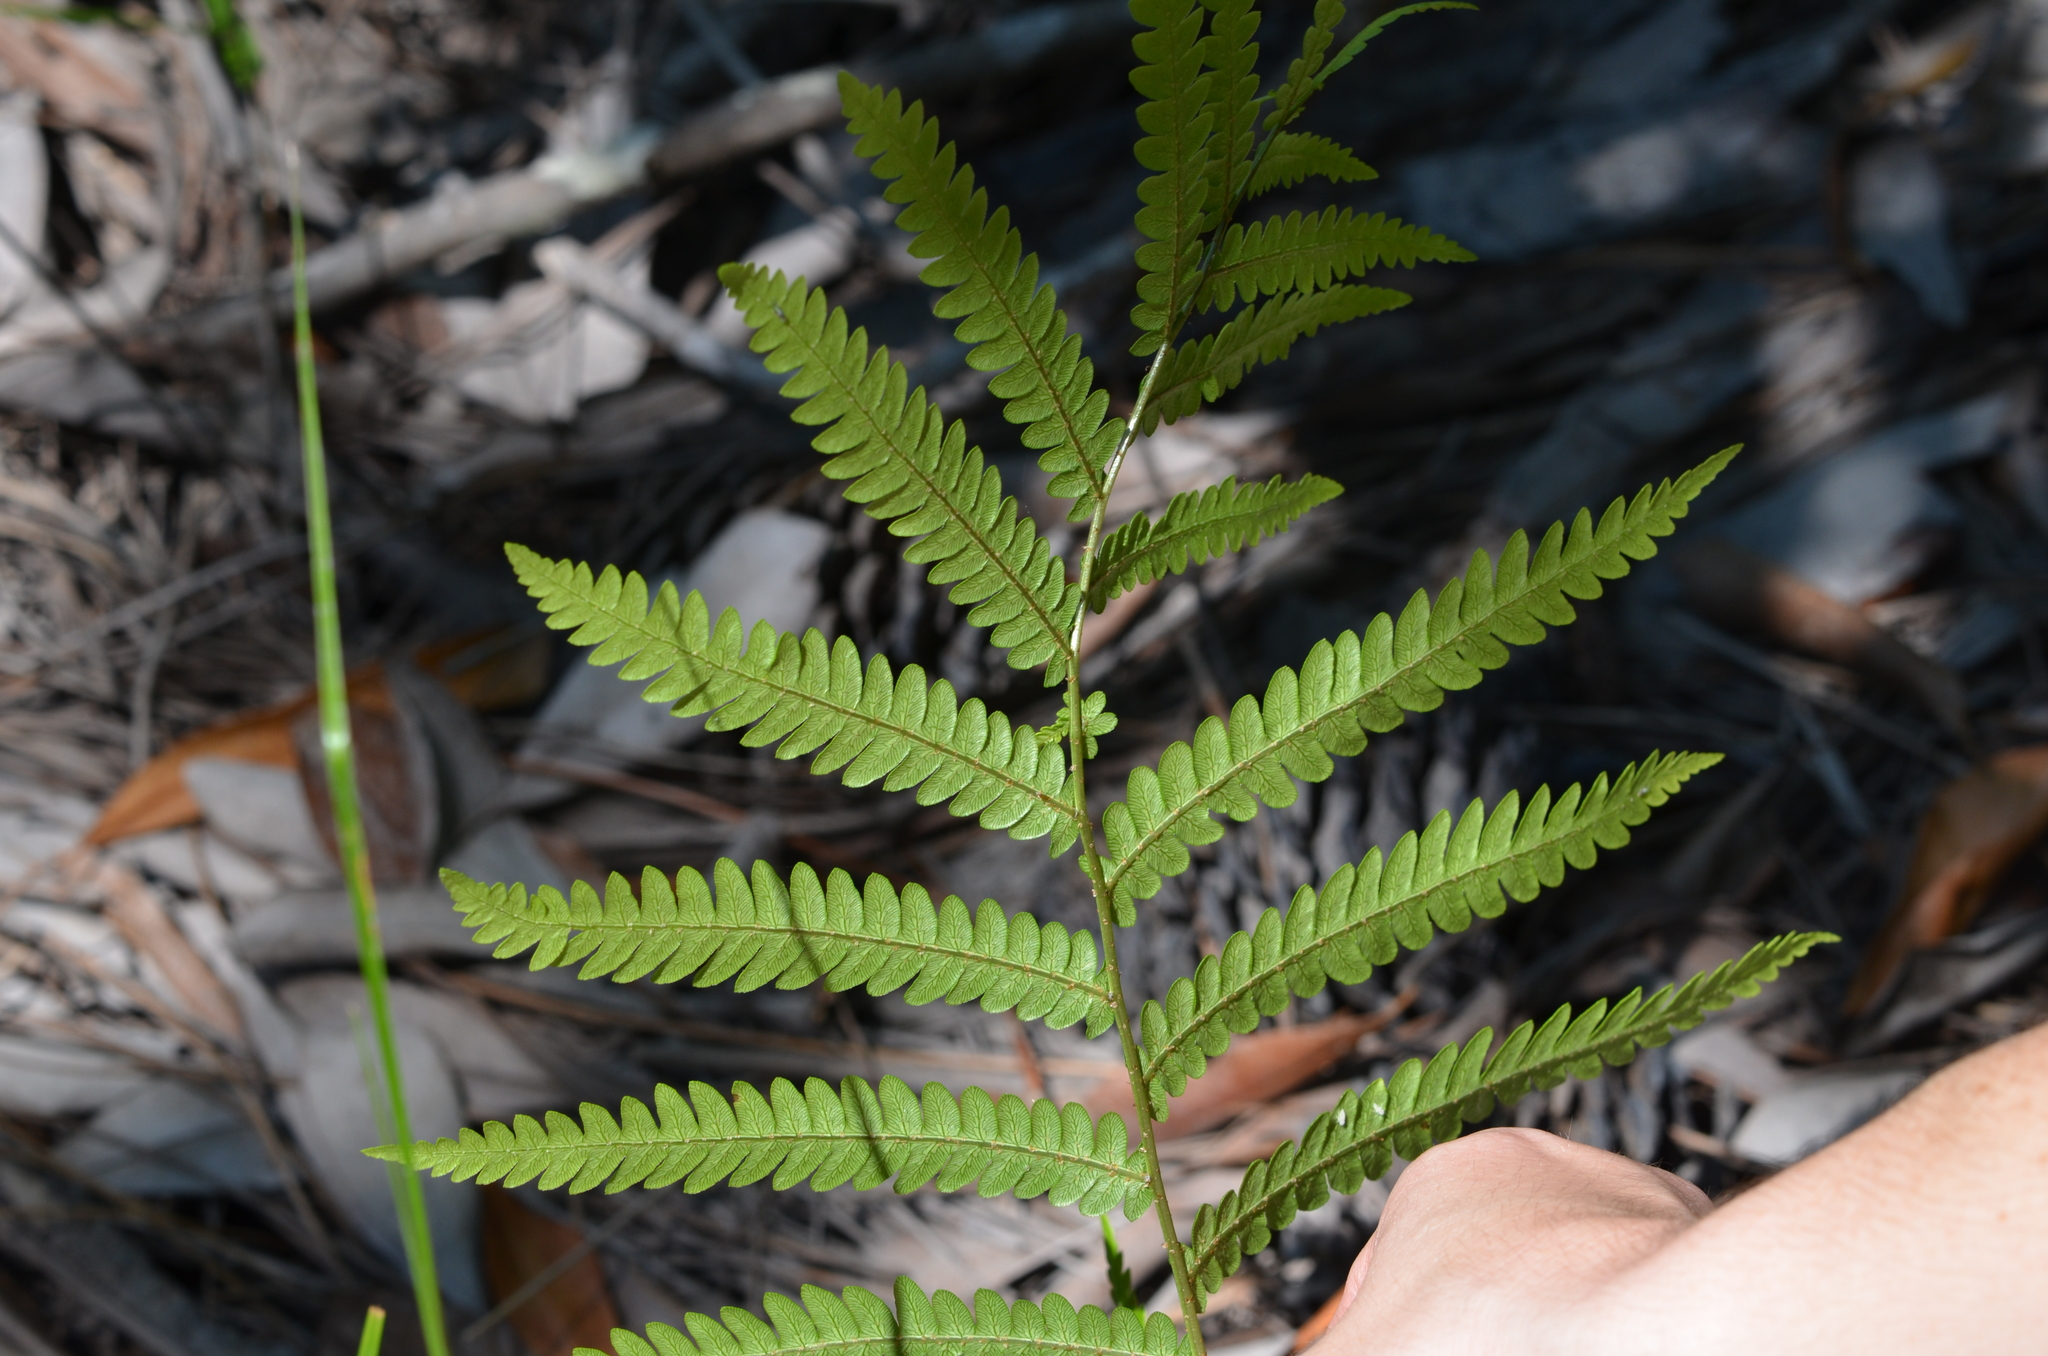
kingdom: Plantae
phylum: Tracheophyta
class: Polypodiopsida
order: Polypodiales
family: Blechnaceae
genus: Anchistea
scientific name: Anchistea virginica
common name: Virginia chain fern
